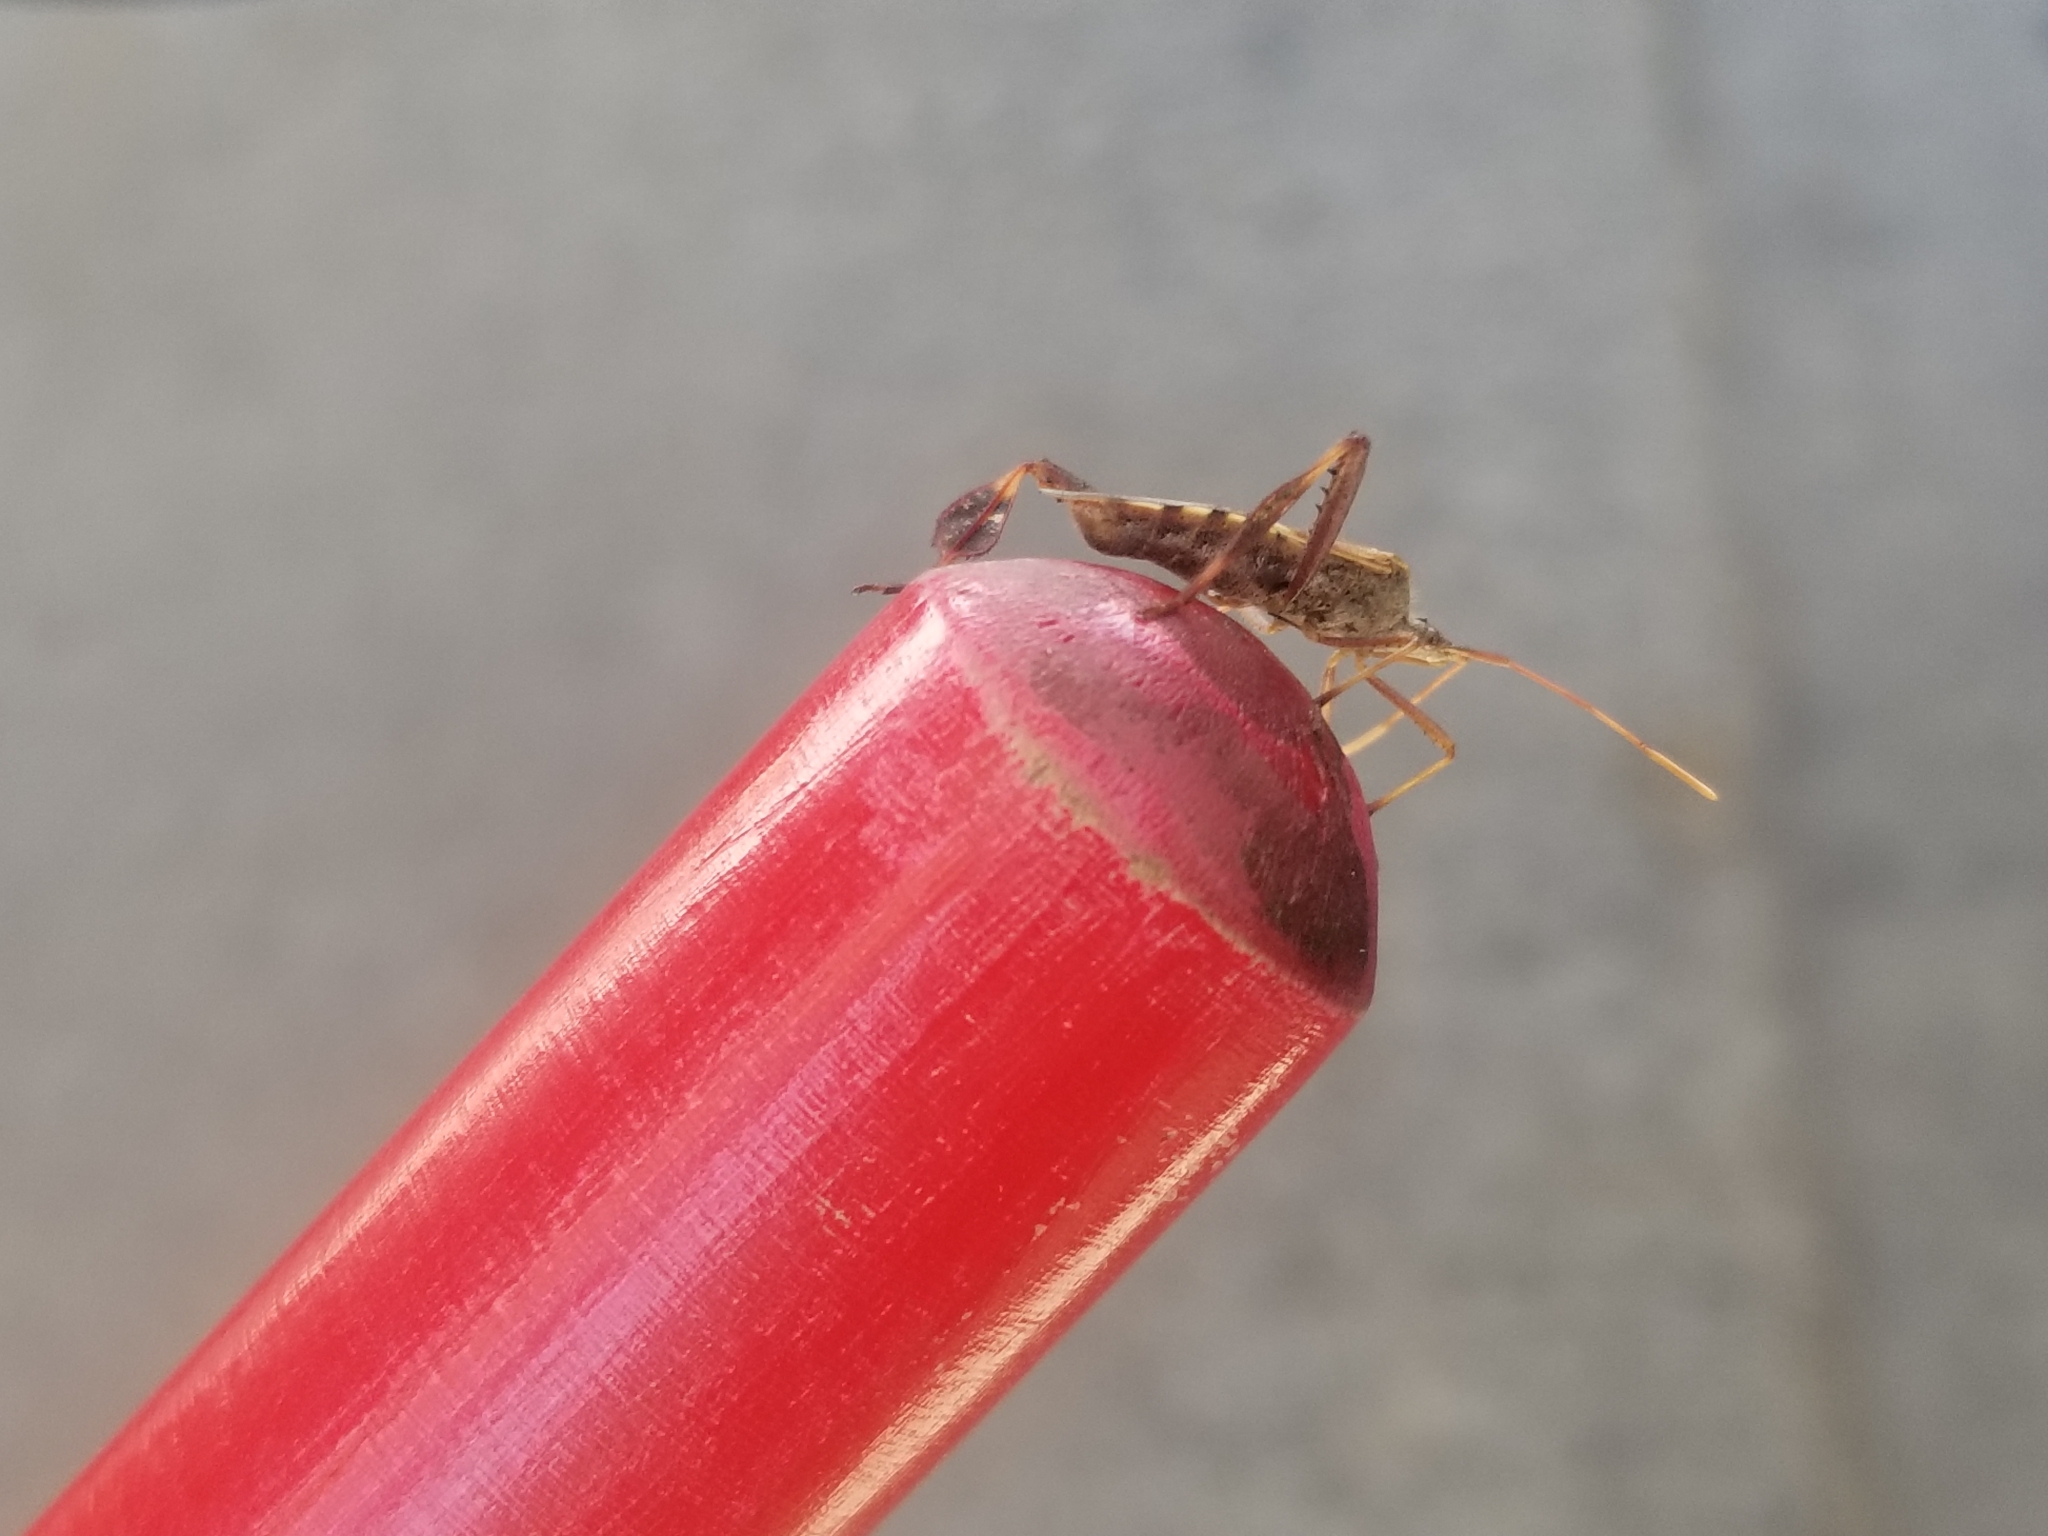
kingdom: Animalia
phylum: Arthropoda
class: Insecta
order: Hemiptera
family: Coreidae
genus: Leptoglossus
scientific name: Leptoglossus clypealis
